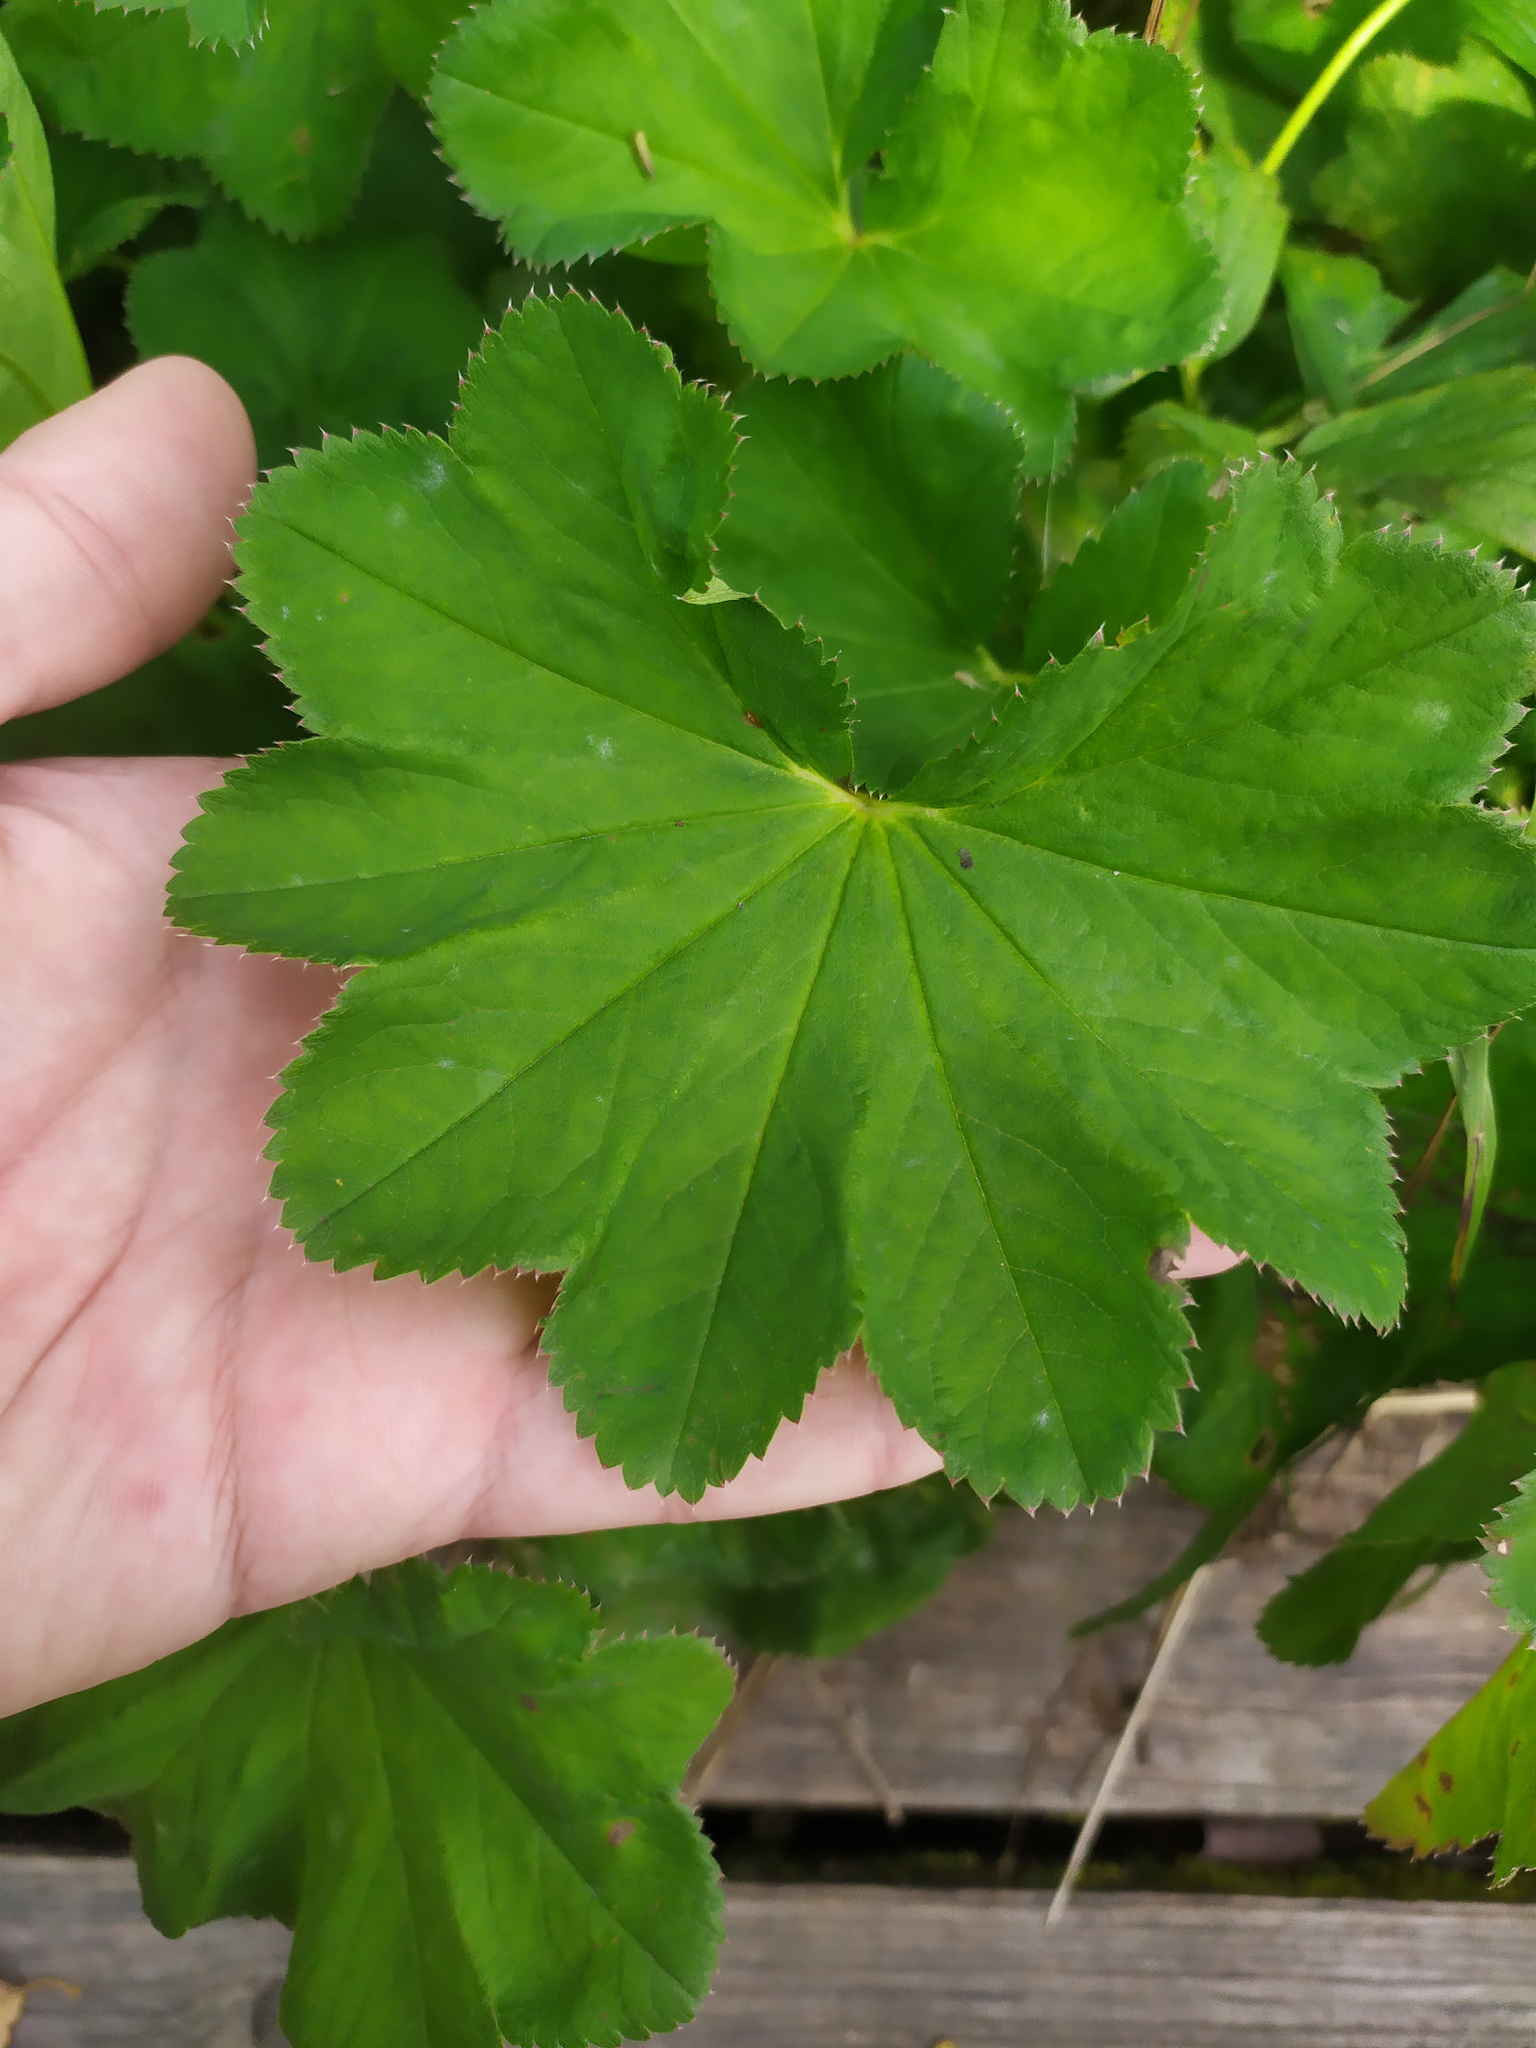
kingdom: Plantae
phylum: Tracheophyta
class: Magnoliopsida
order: Rosales
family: Rosaceae
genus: Alchemilla
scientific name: Alchemilla
